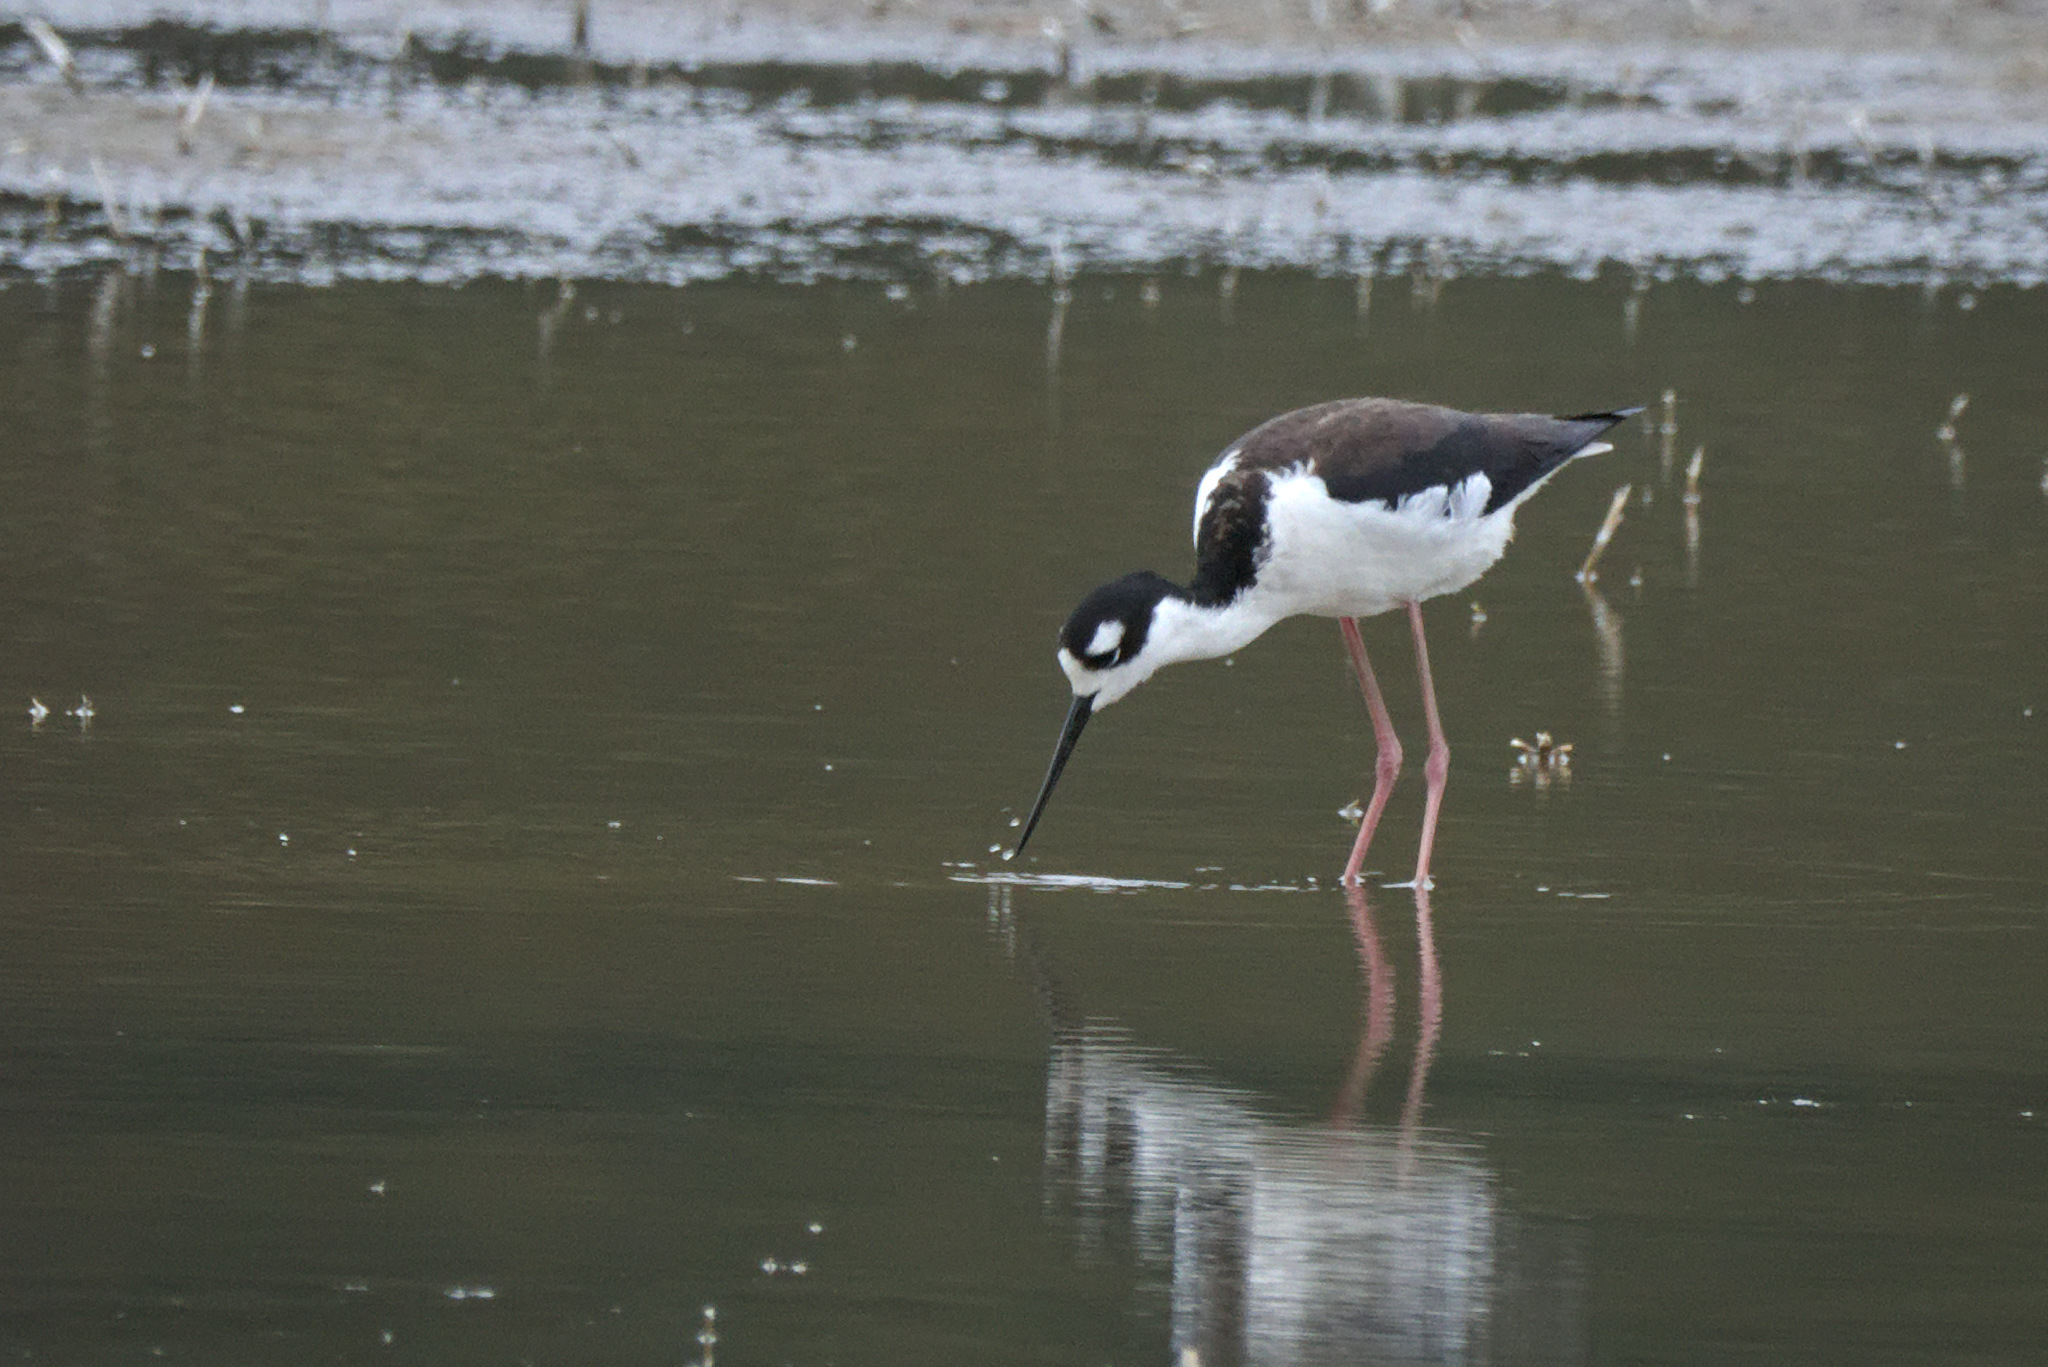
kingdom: Animalia
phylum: Chordata
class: Aves
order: Charadriiformes
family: Recurvirostridae
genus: Himantopus
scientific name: Himantopus mexicanus
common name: Black-necked stilt
